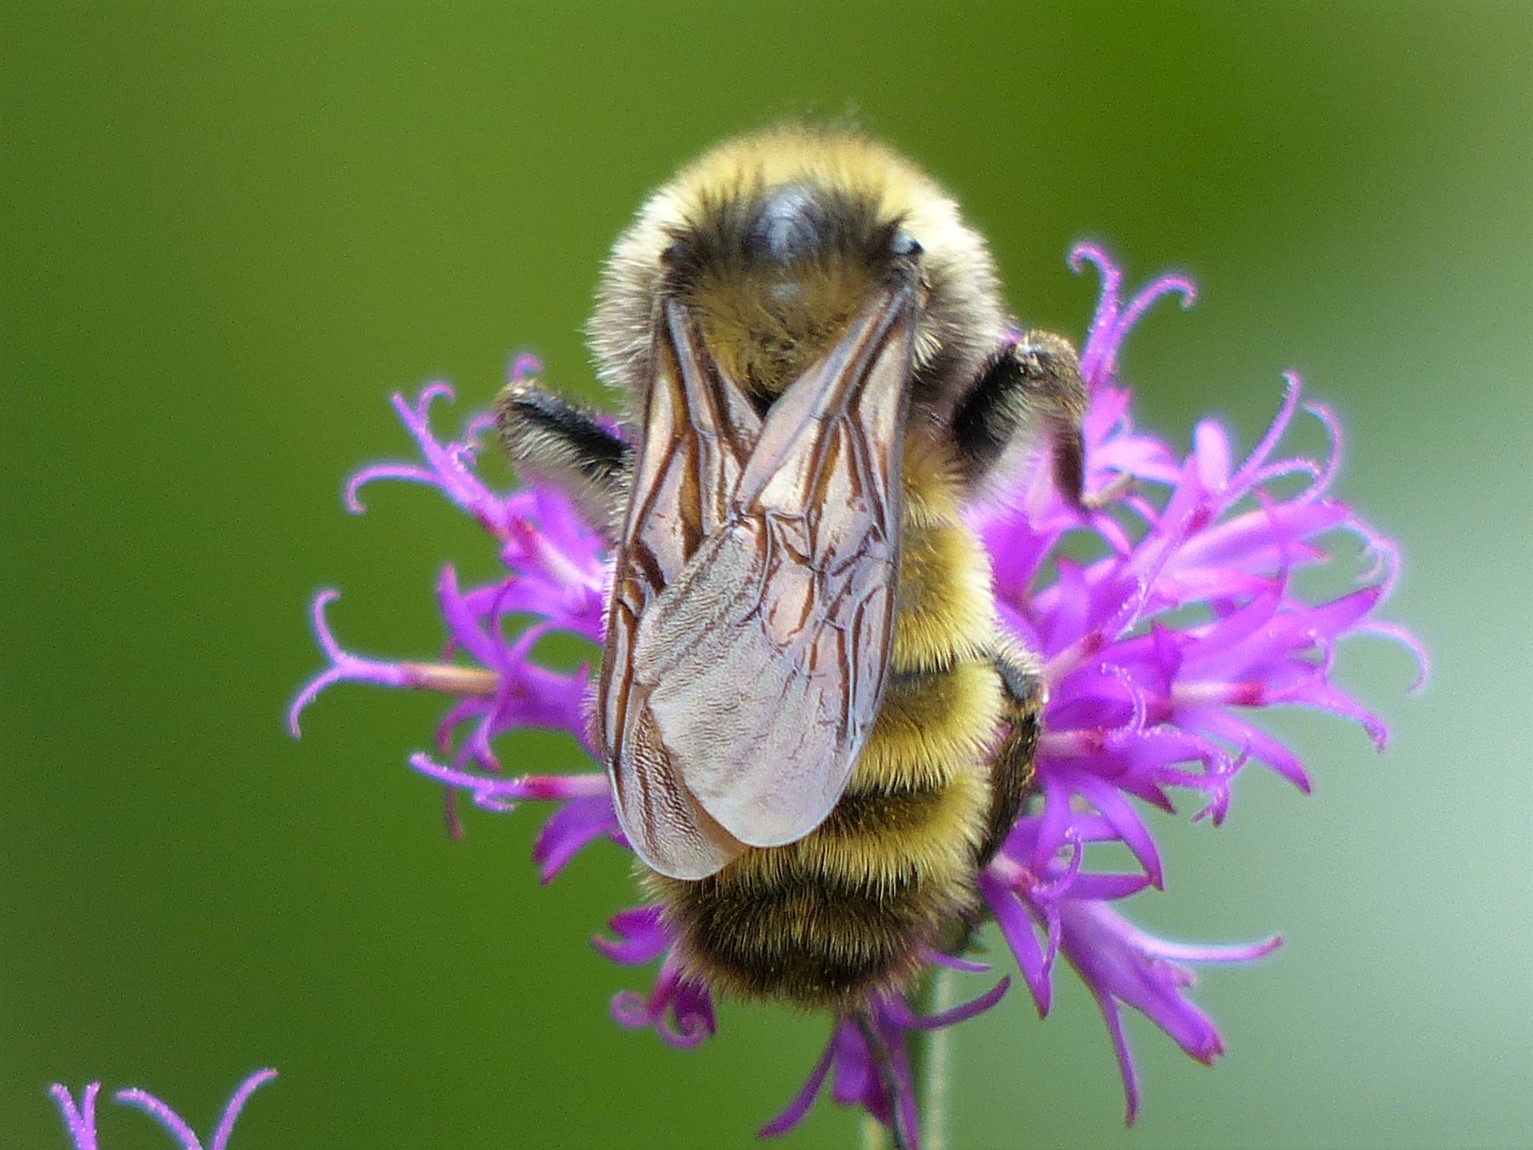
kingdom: Animalia
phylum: Arthropoda
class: Insecta
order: Hymenoptera
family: Apidae
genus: Bombus
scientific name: Bombus pensylvanicus
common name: Bumble bee
